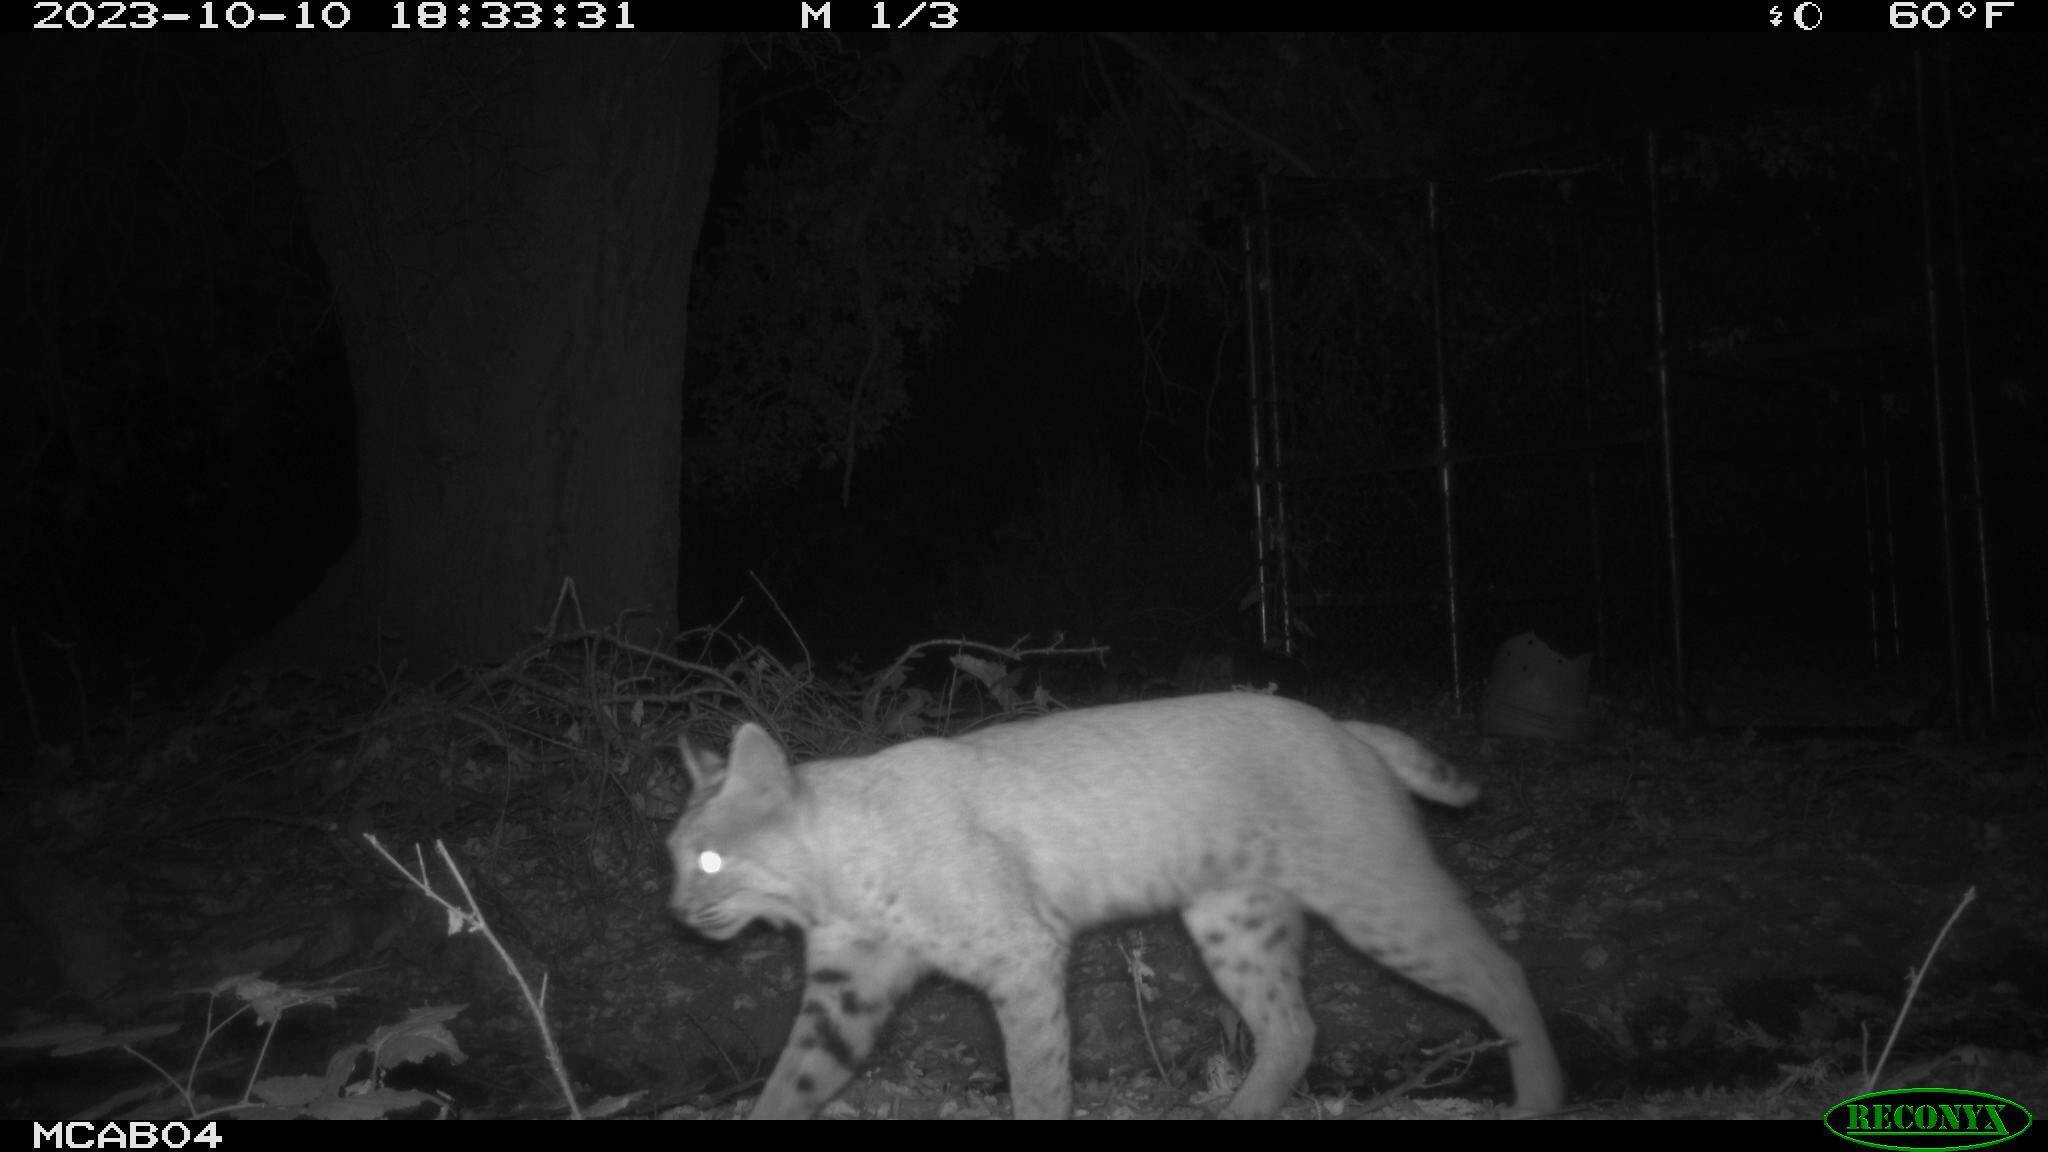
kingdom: Animalia
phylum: Chordata
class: Mammalia
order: Carnivora
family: Felidae
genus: Lynx
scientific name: Lynx rufus
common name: Bobcat
